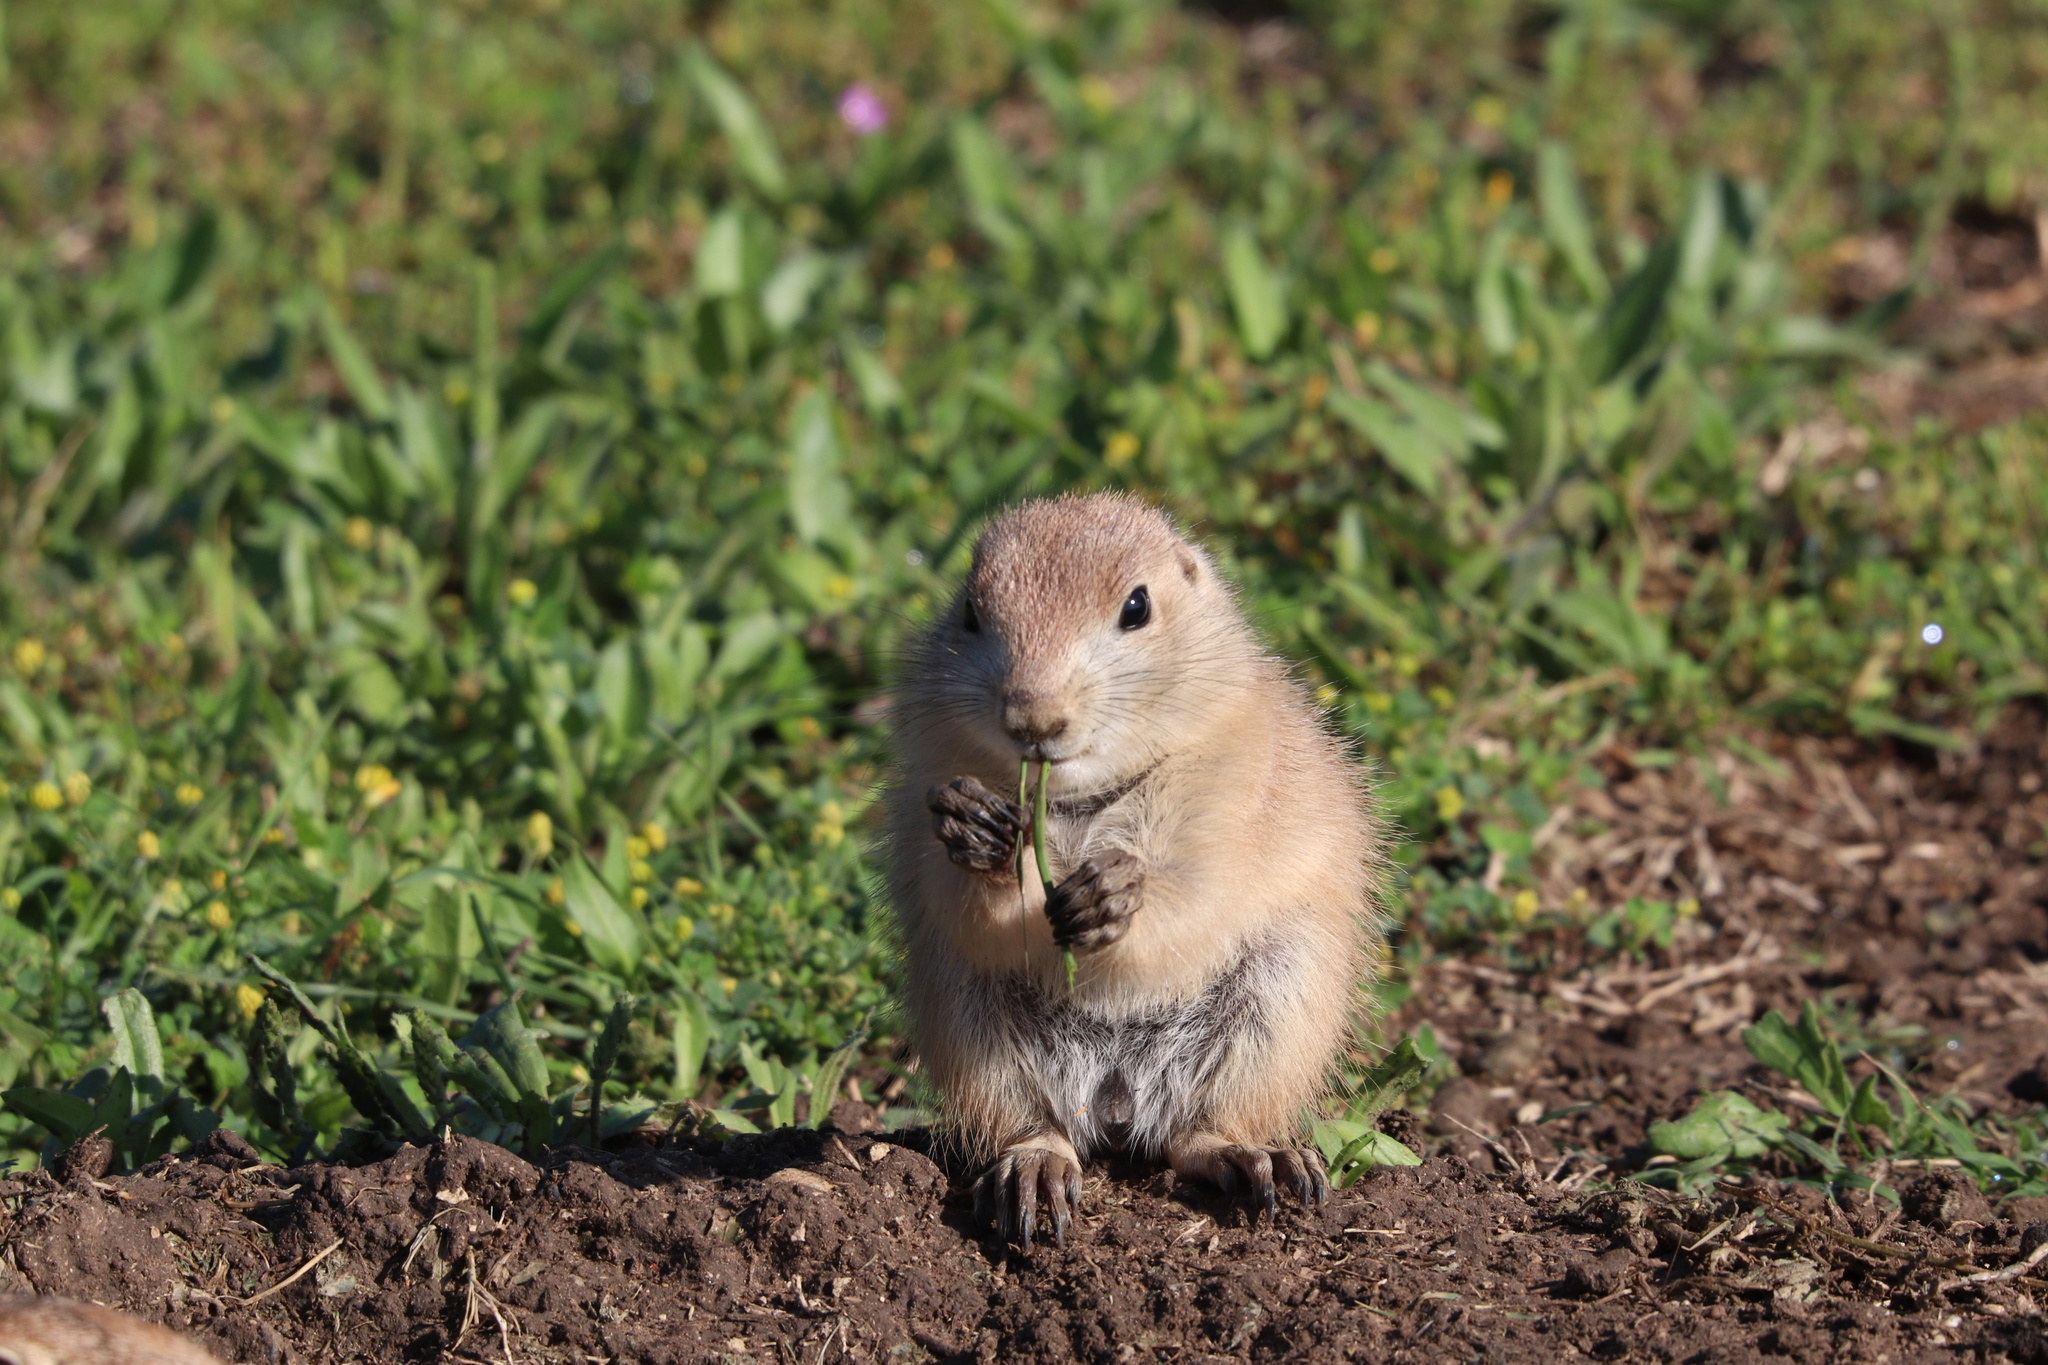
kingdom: Animalia
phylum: Chordata
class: Mammalia
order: Rodentia
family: Sciuridae
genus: Cynomys
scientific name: Cynomys ludovicianus
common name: Black-tailed prairie dog
